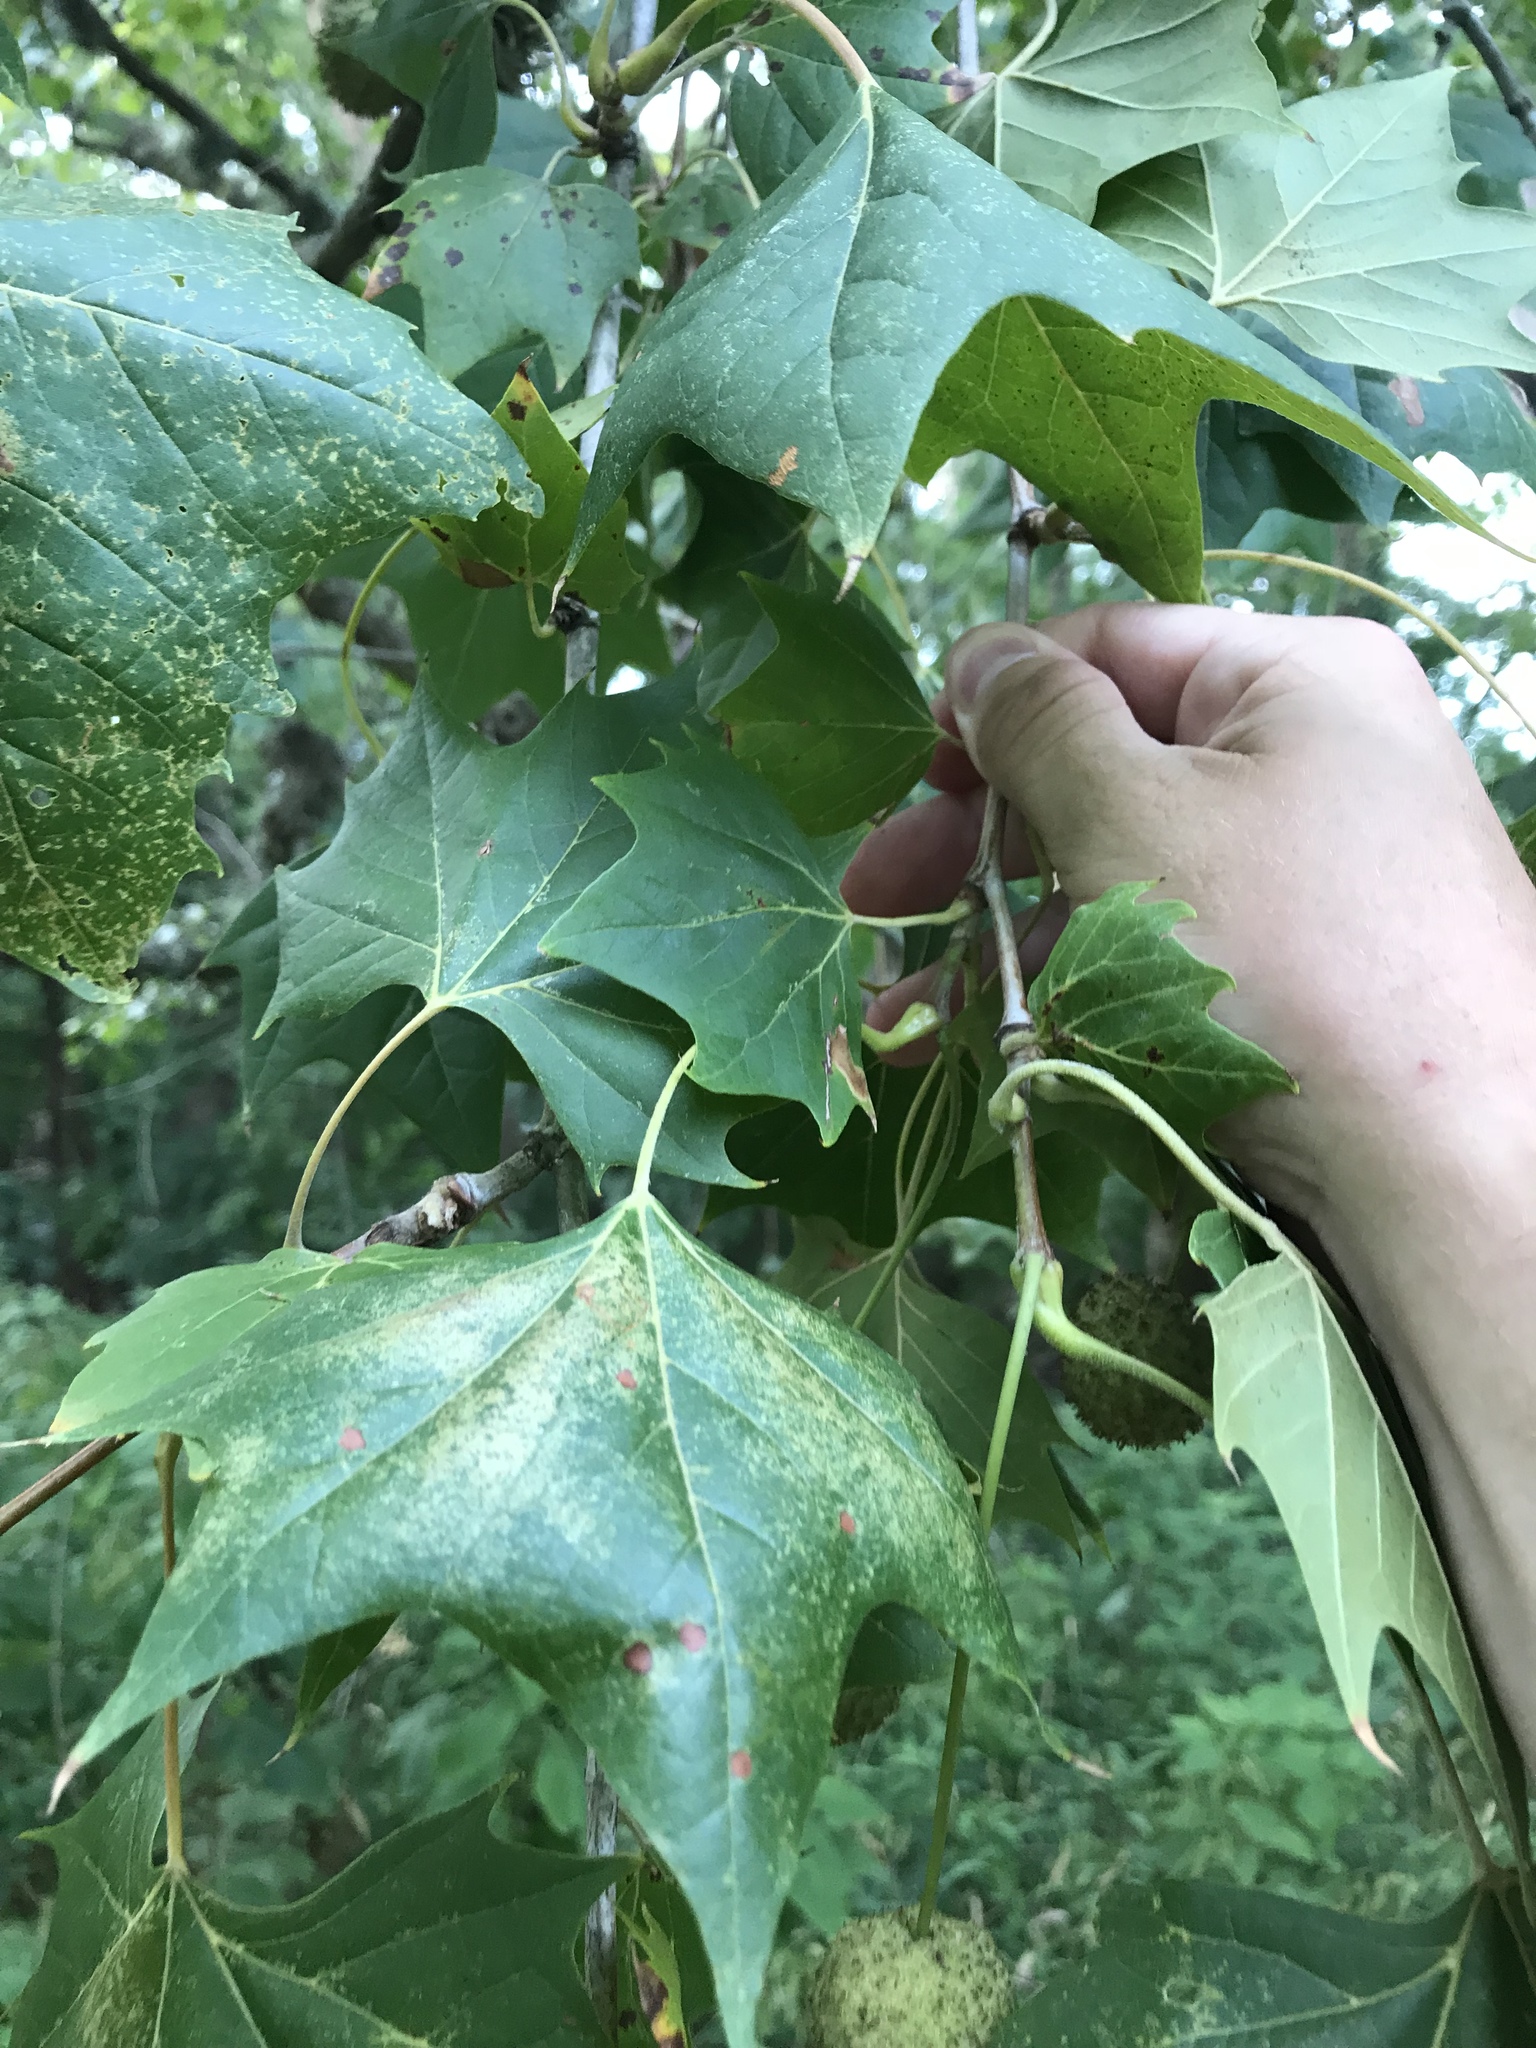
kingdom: Plantae
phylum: Tracheophyta
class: Magnoliopsida
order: Proteales
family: Platanaceae
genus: Platanus
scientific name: Platanus occidentalis
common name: American sycamore
